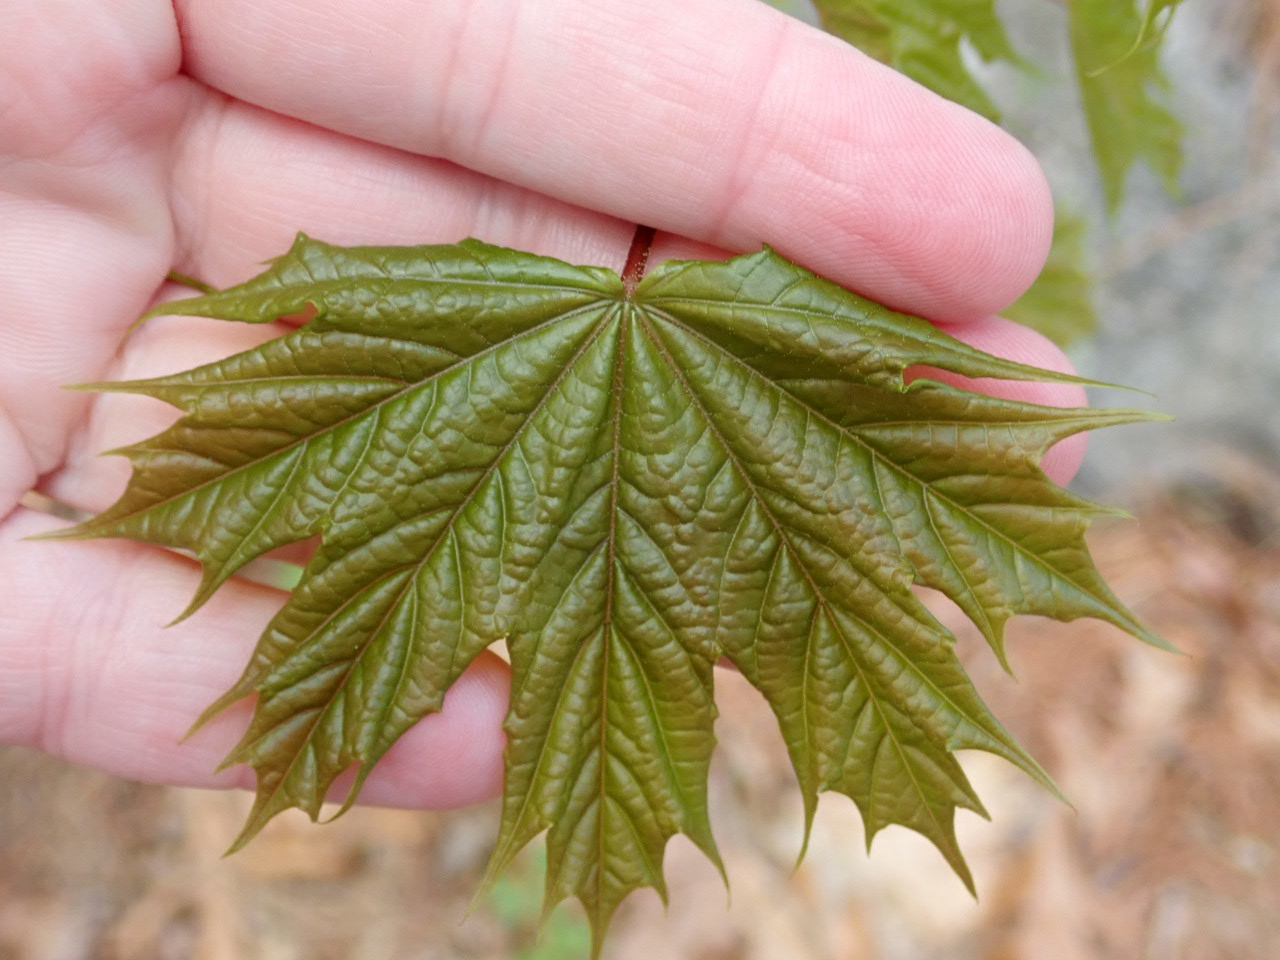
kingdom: Plantae
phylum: Tracheophyta
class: Magnoliopsida
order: Sapindales
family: Sapindaceae
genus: Acer
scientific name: Acer platanoides
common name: Norway maple
